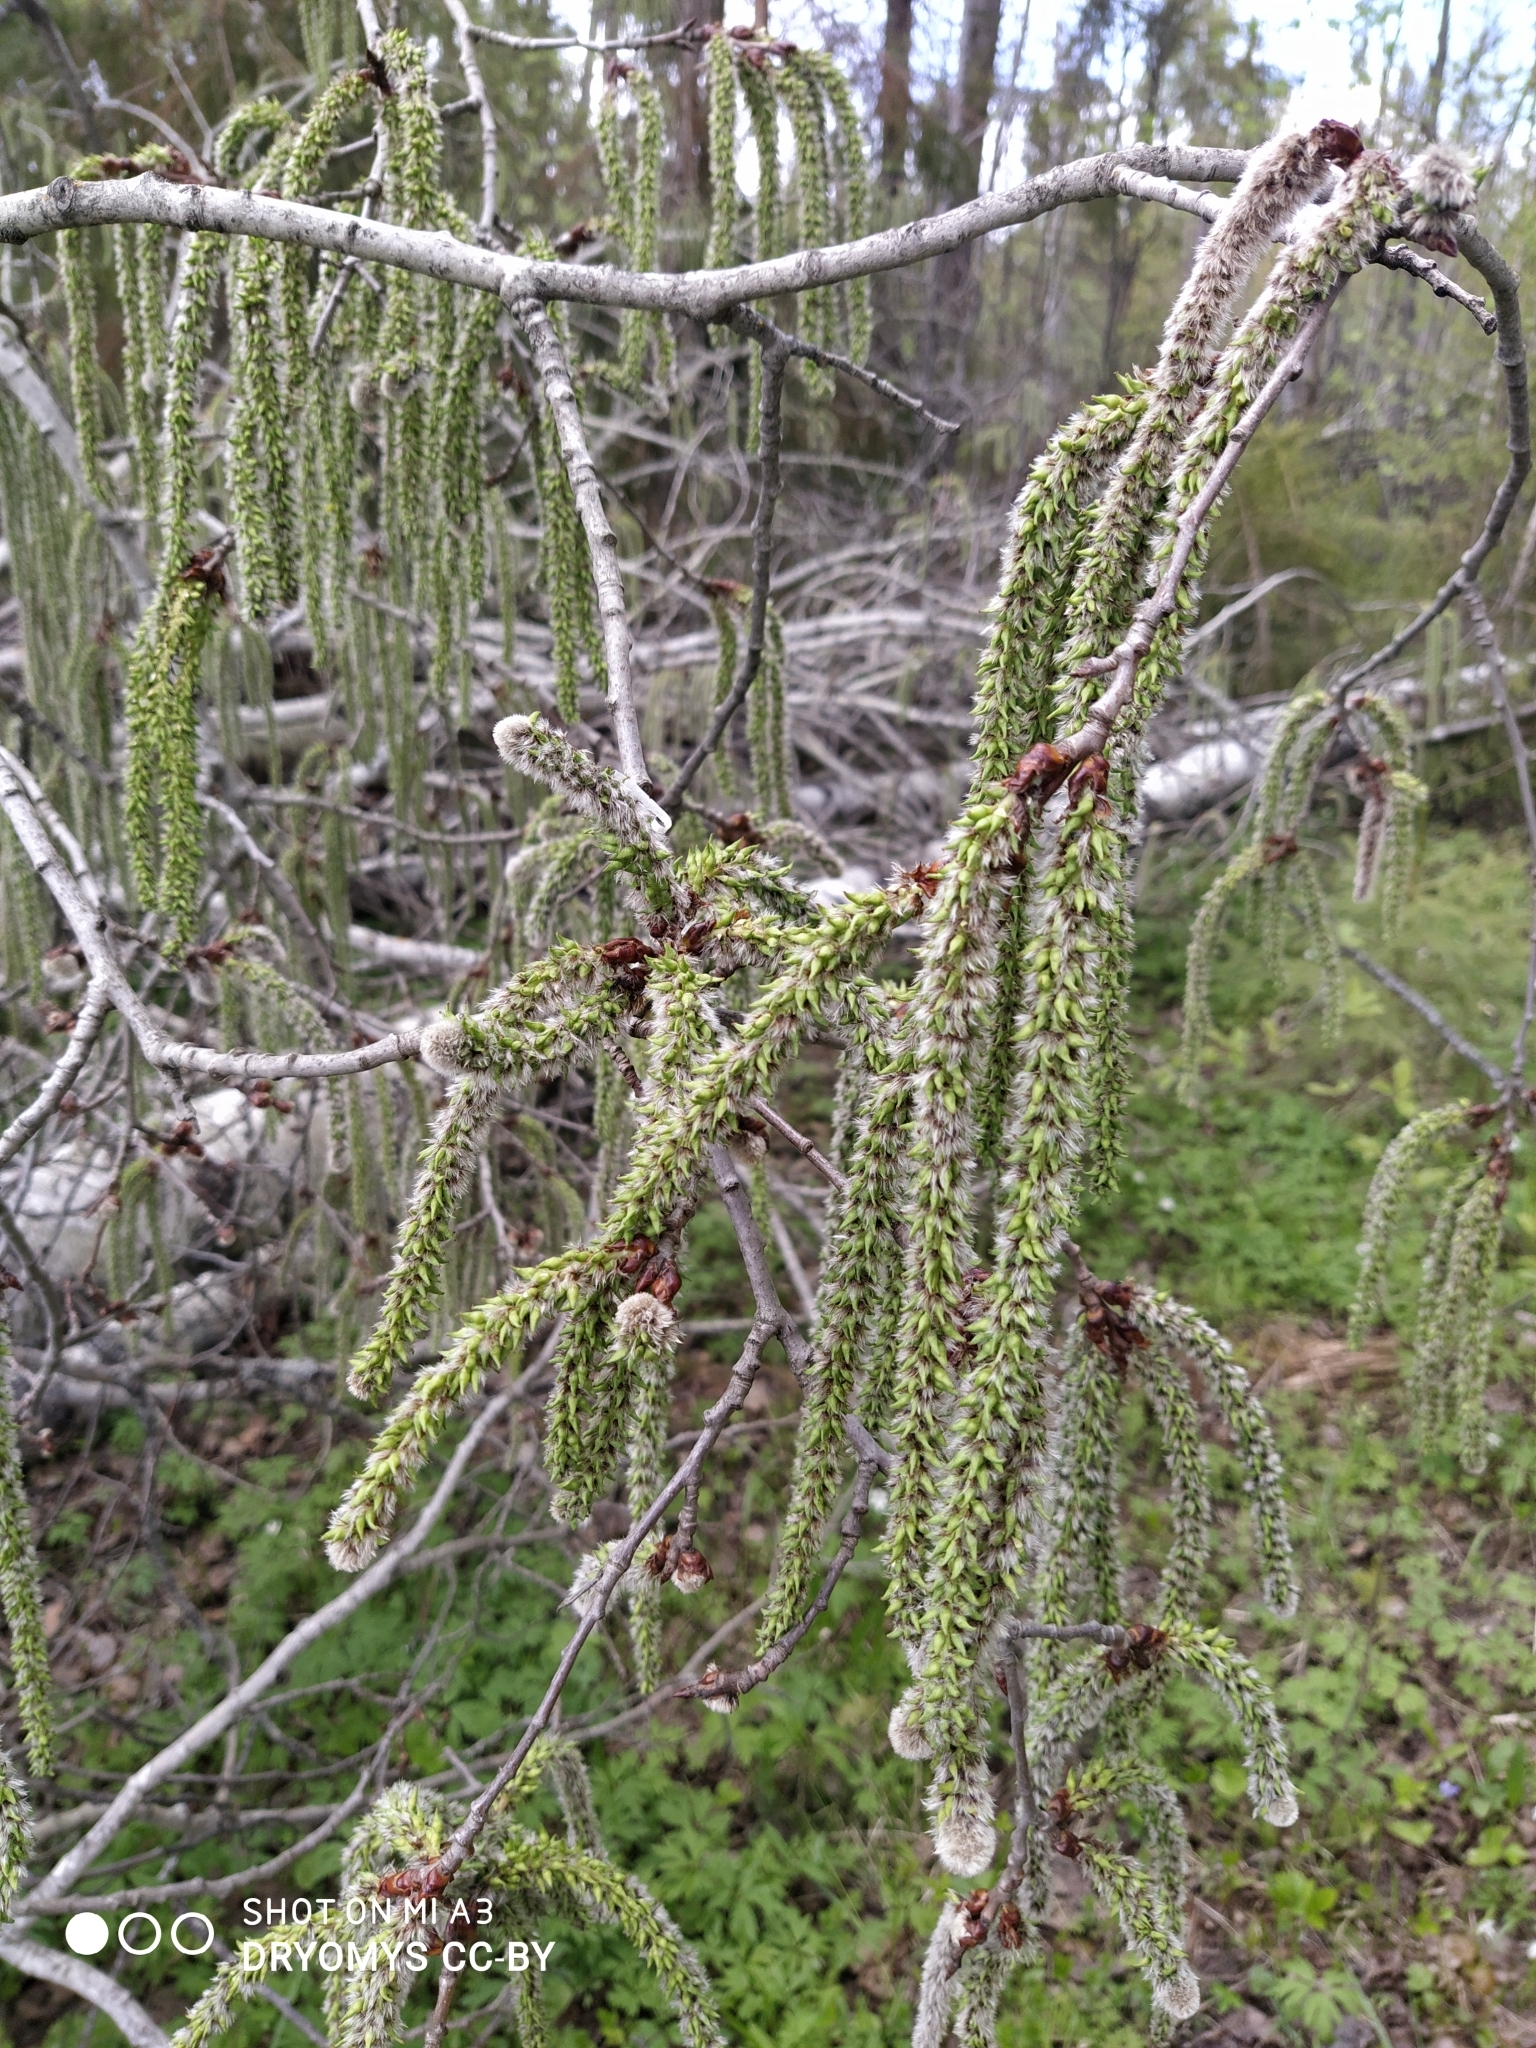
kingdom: Plantae
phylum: Tracheophyta
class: Magnoliopsida
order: Malpighiales
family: Salicaceae
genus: Populus
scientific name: Populus tremula
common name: European aspen
